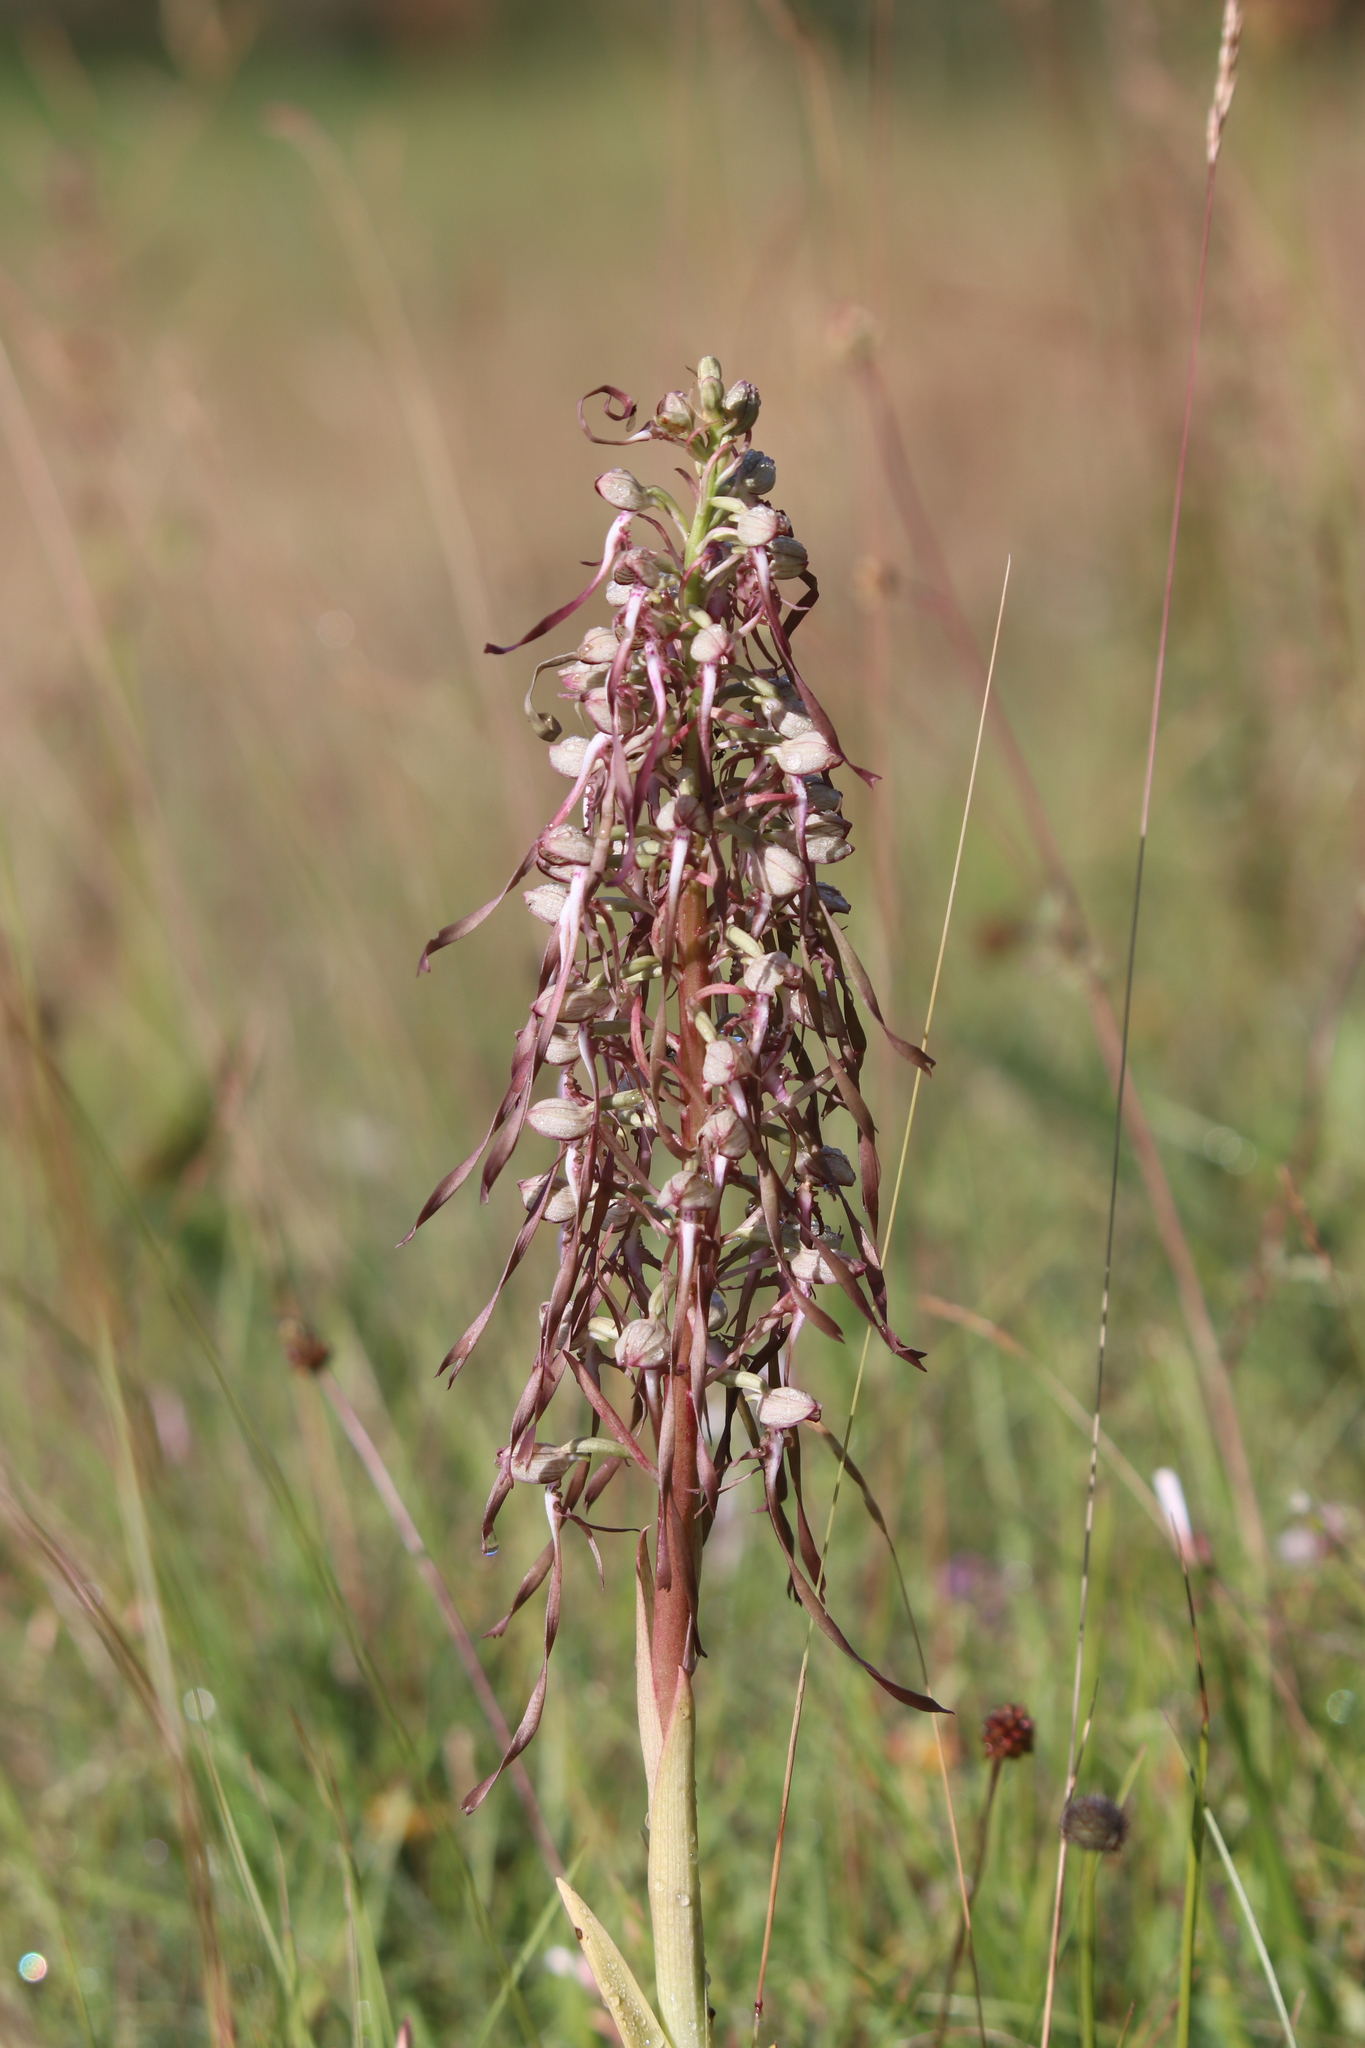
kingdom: Plantae
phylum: Tracheophyta
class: Liliopsida
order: Asparagales
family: Orchidaceae
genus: Himantoglossum
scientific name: Himantoglossum hircinum
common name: Lizard orchid
